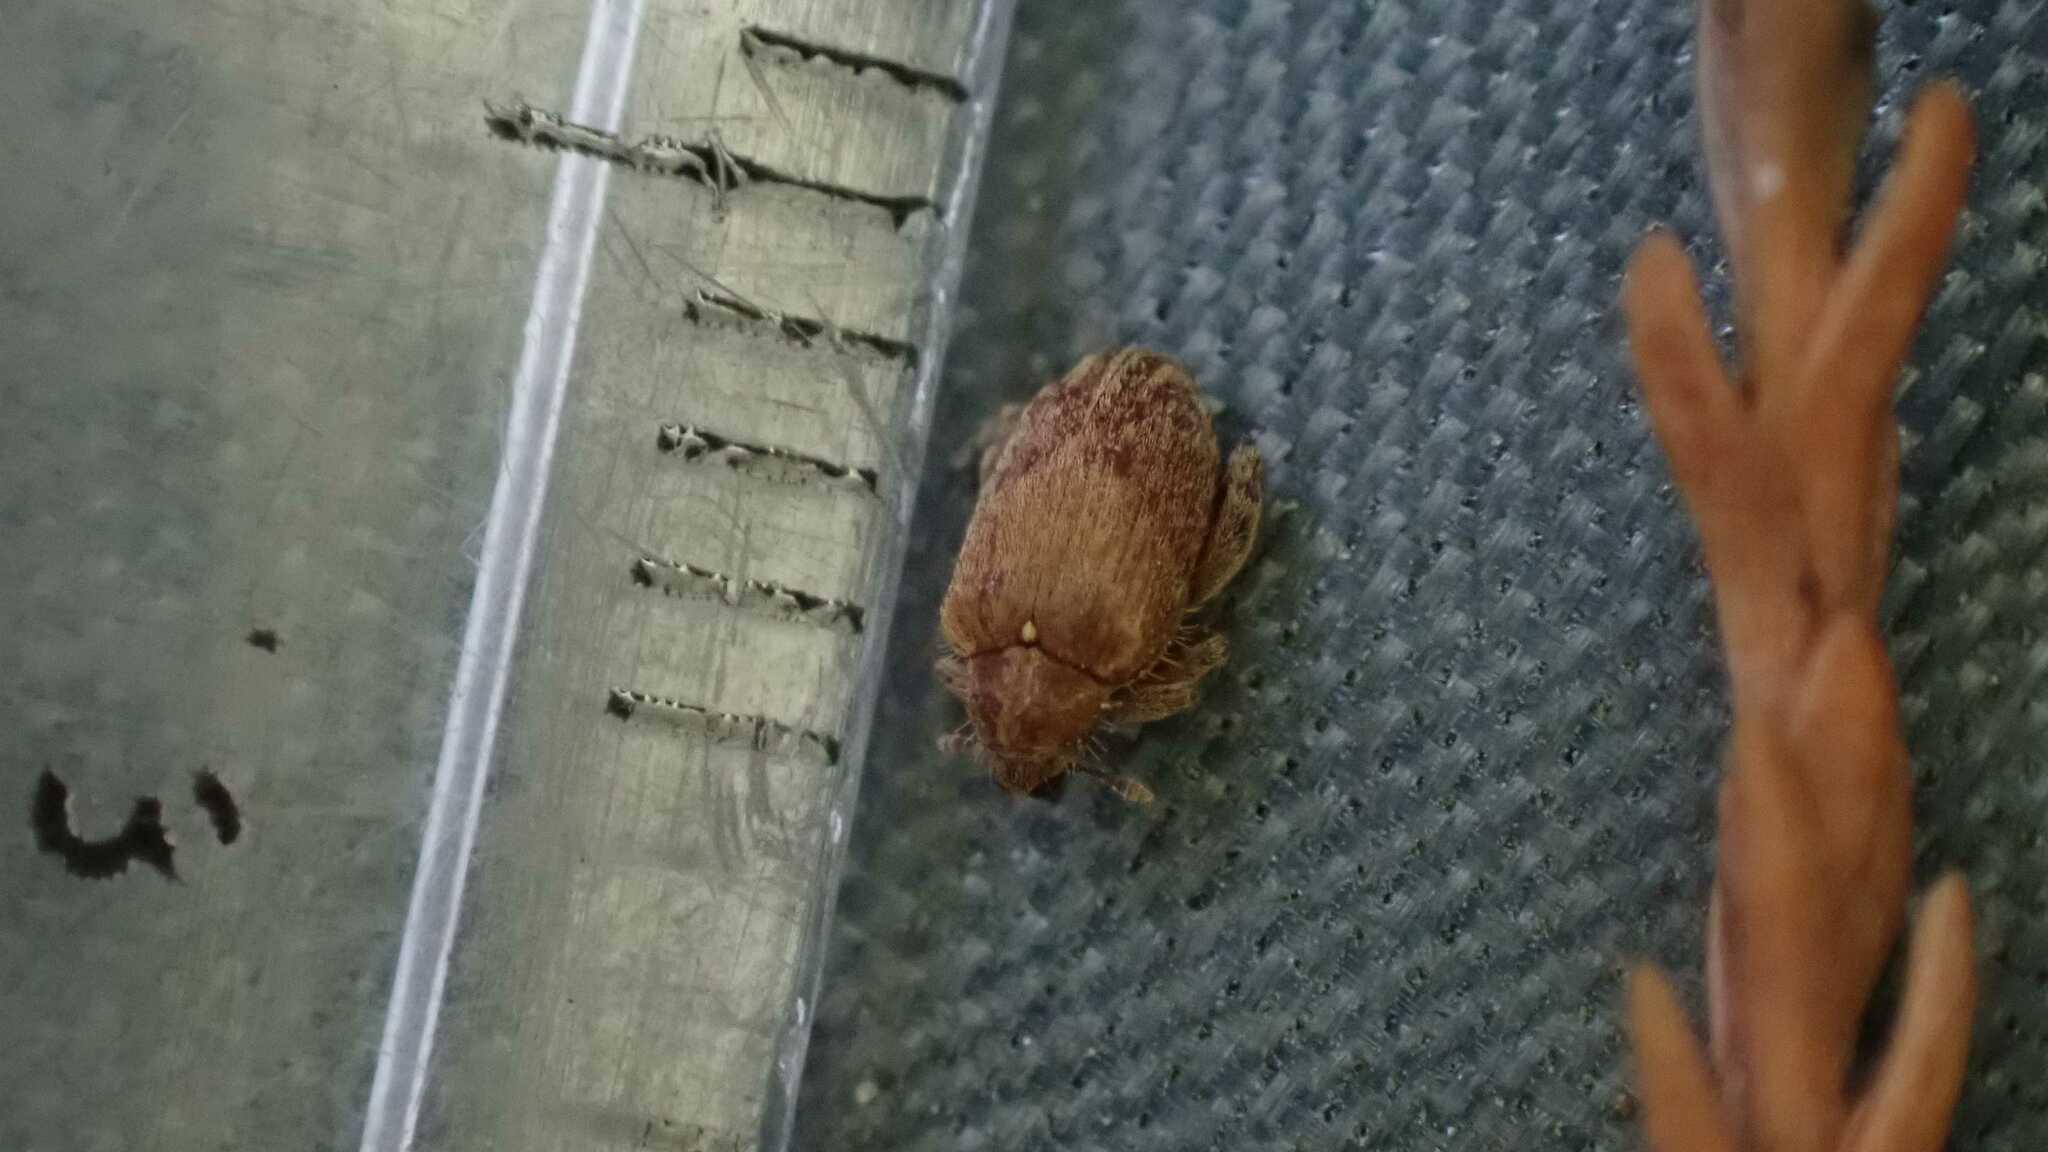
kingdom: Animalia
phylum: Arthropoda
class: Insecta
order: Coleoptera
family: Curculionidae
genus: Orchestes
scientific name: Orchestes quercus
